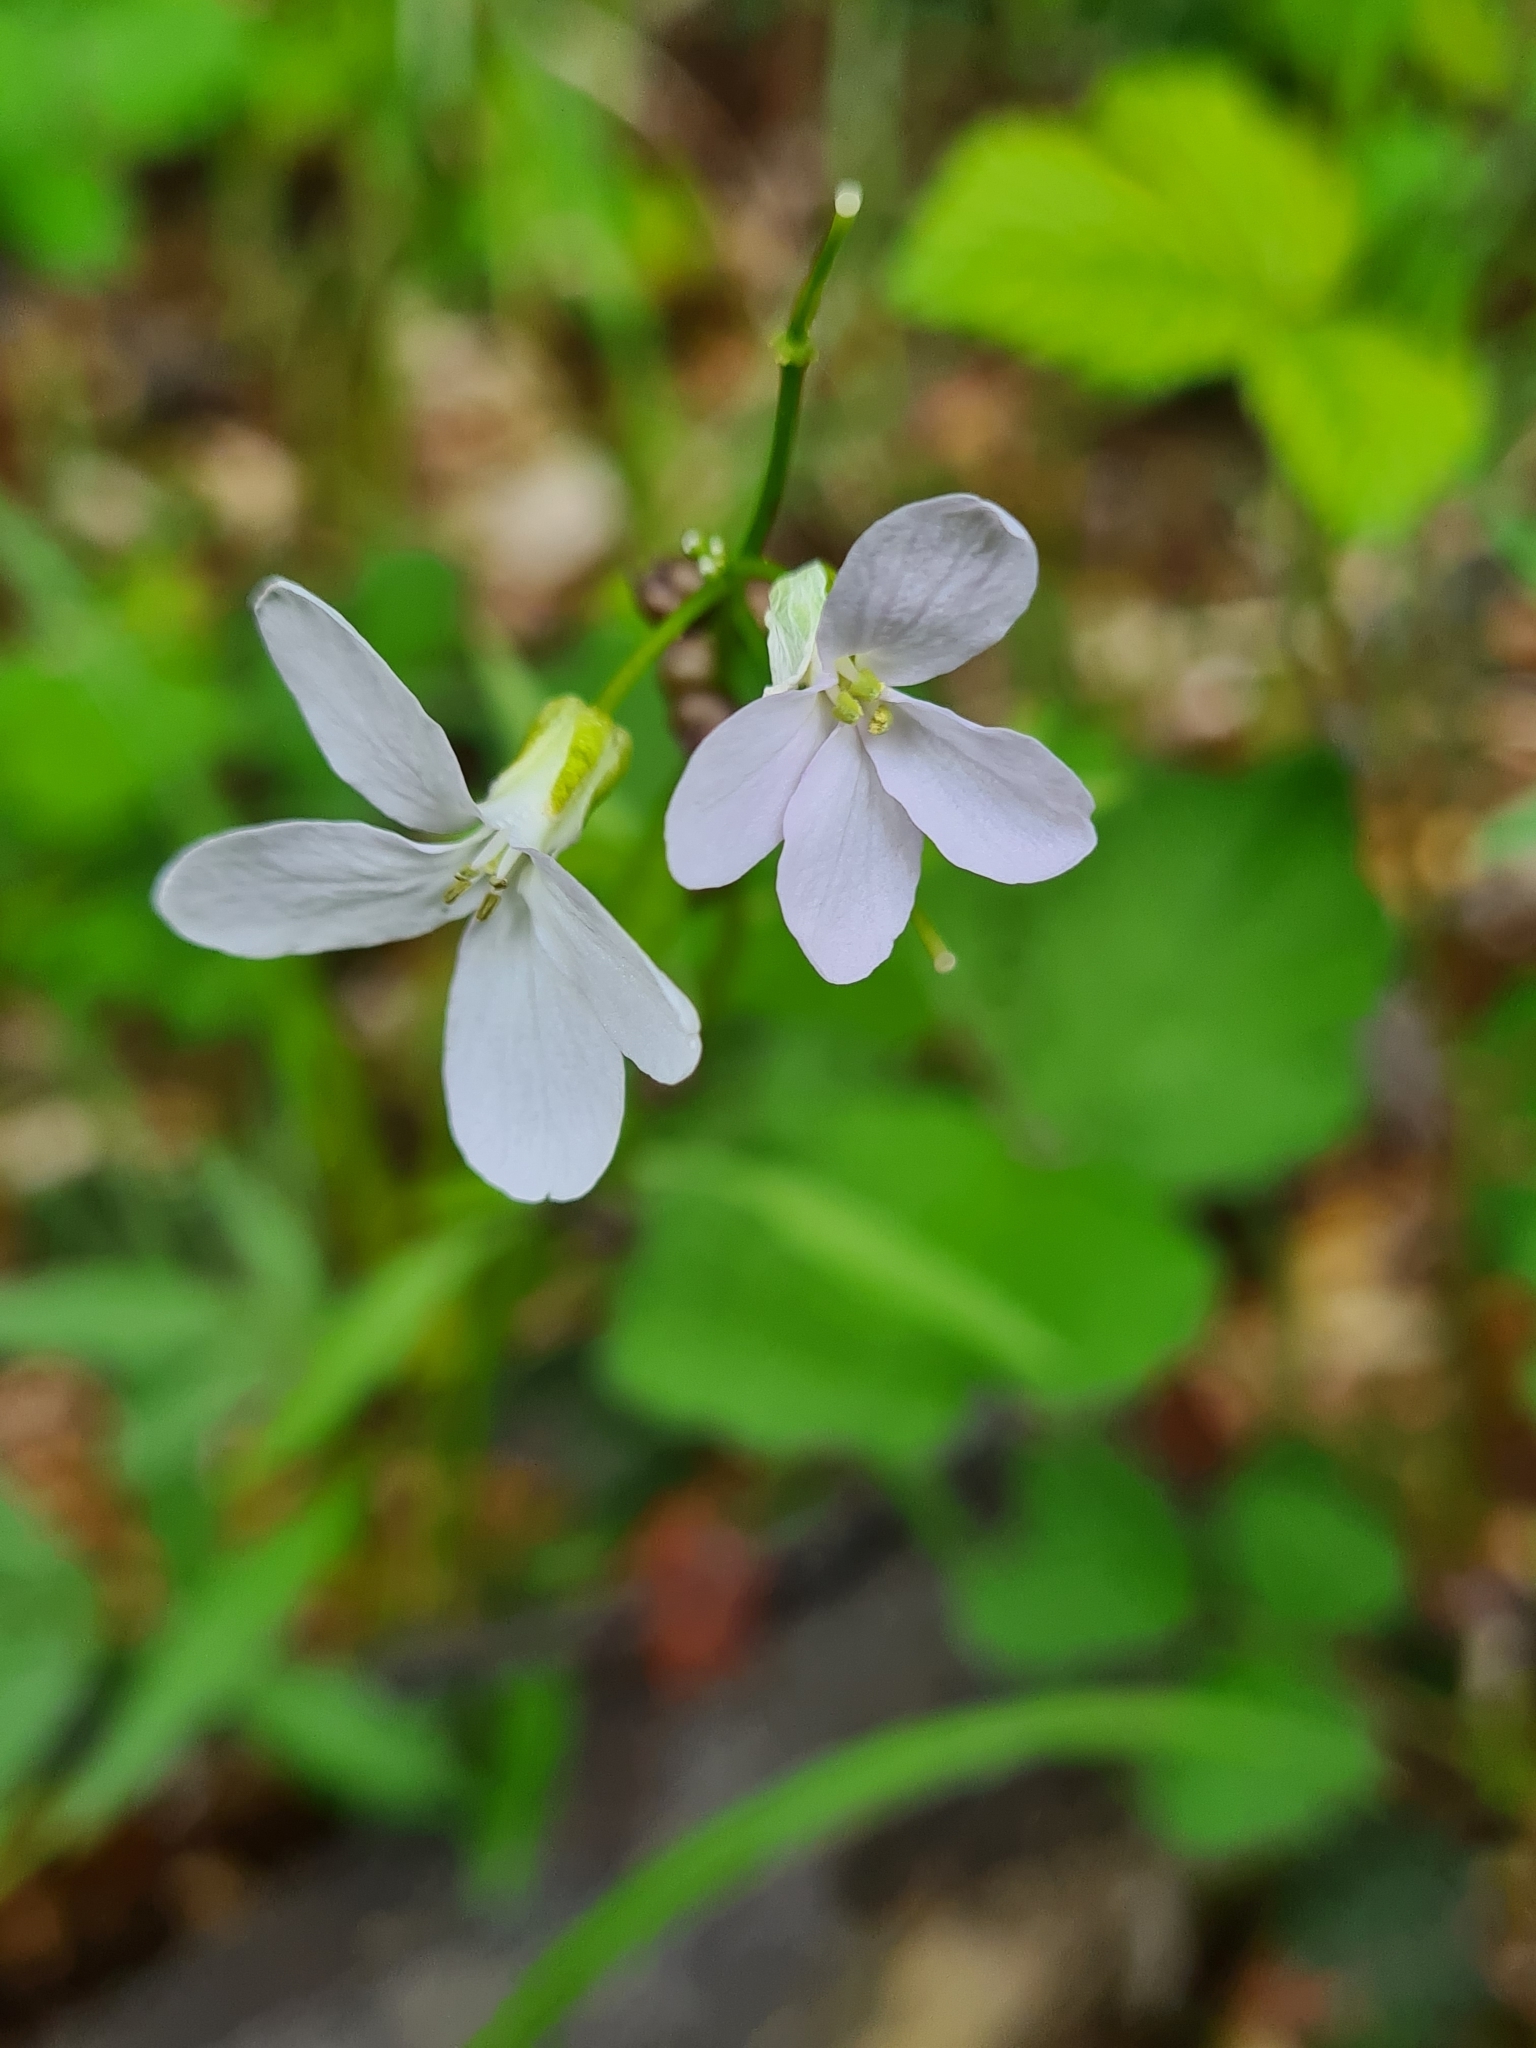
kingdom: Plantae
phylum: Tracheophyta
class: Magnoliopsida
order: Brassicales
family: Brassicaceae
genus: Cardamine
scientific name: Cardamine bulbifera
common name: Coralroot bittercress
